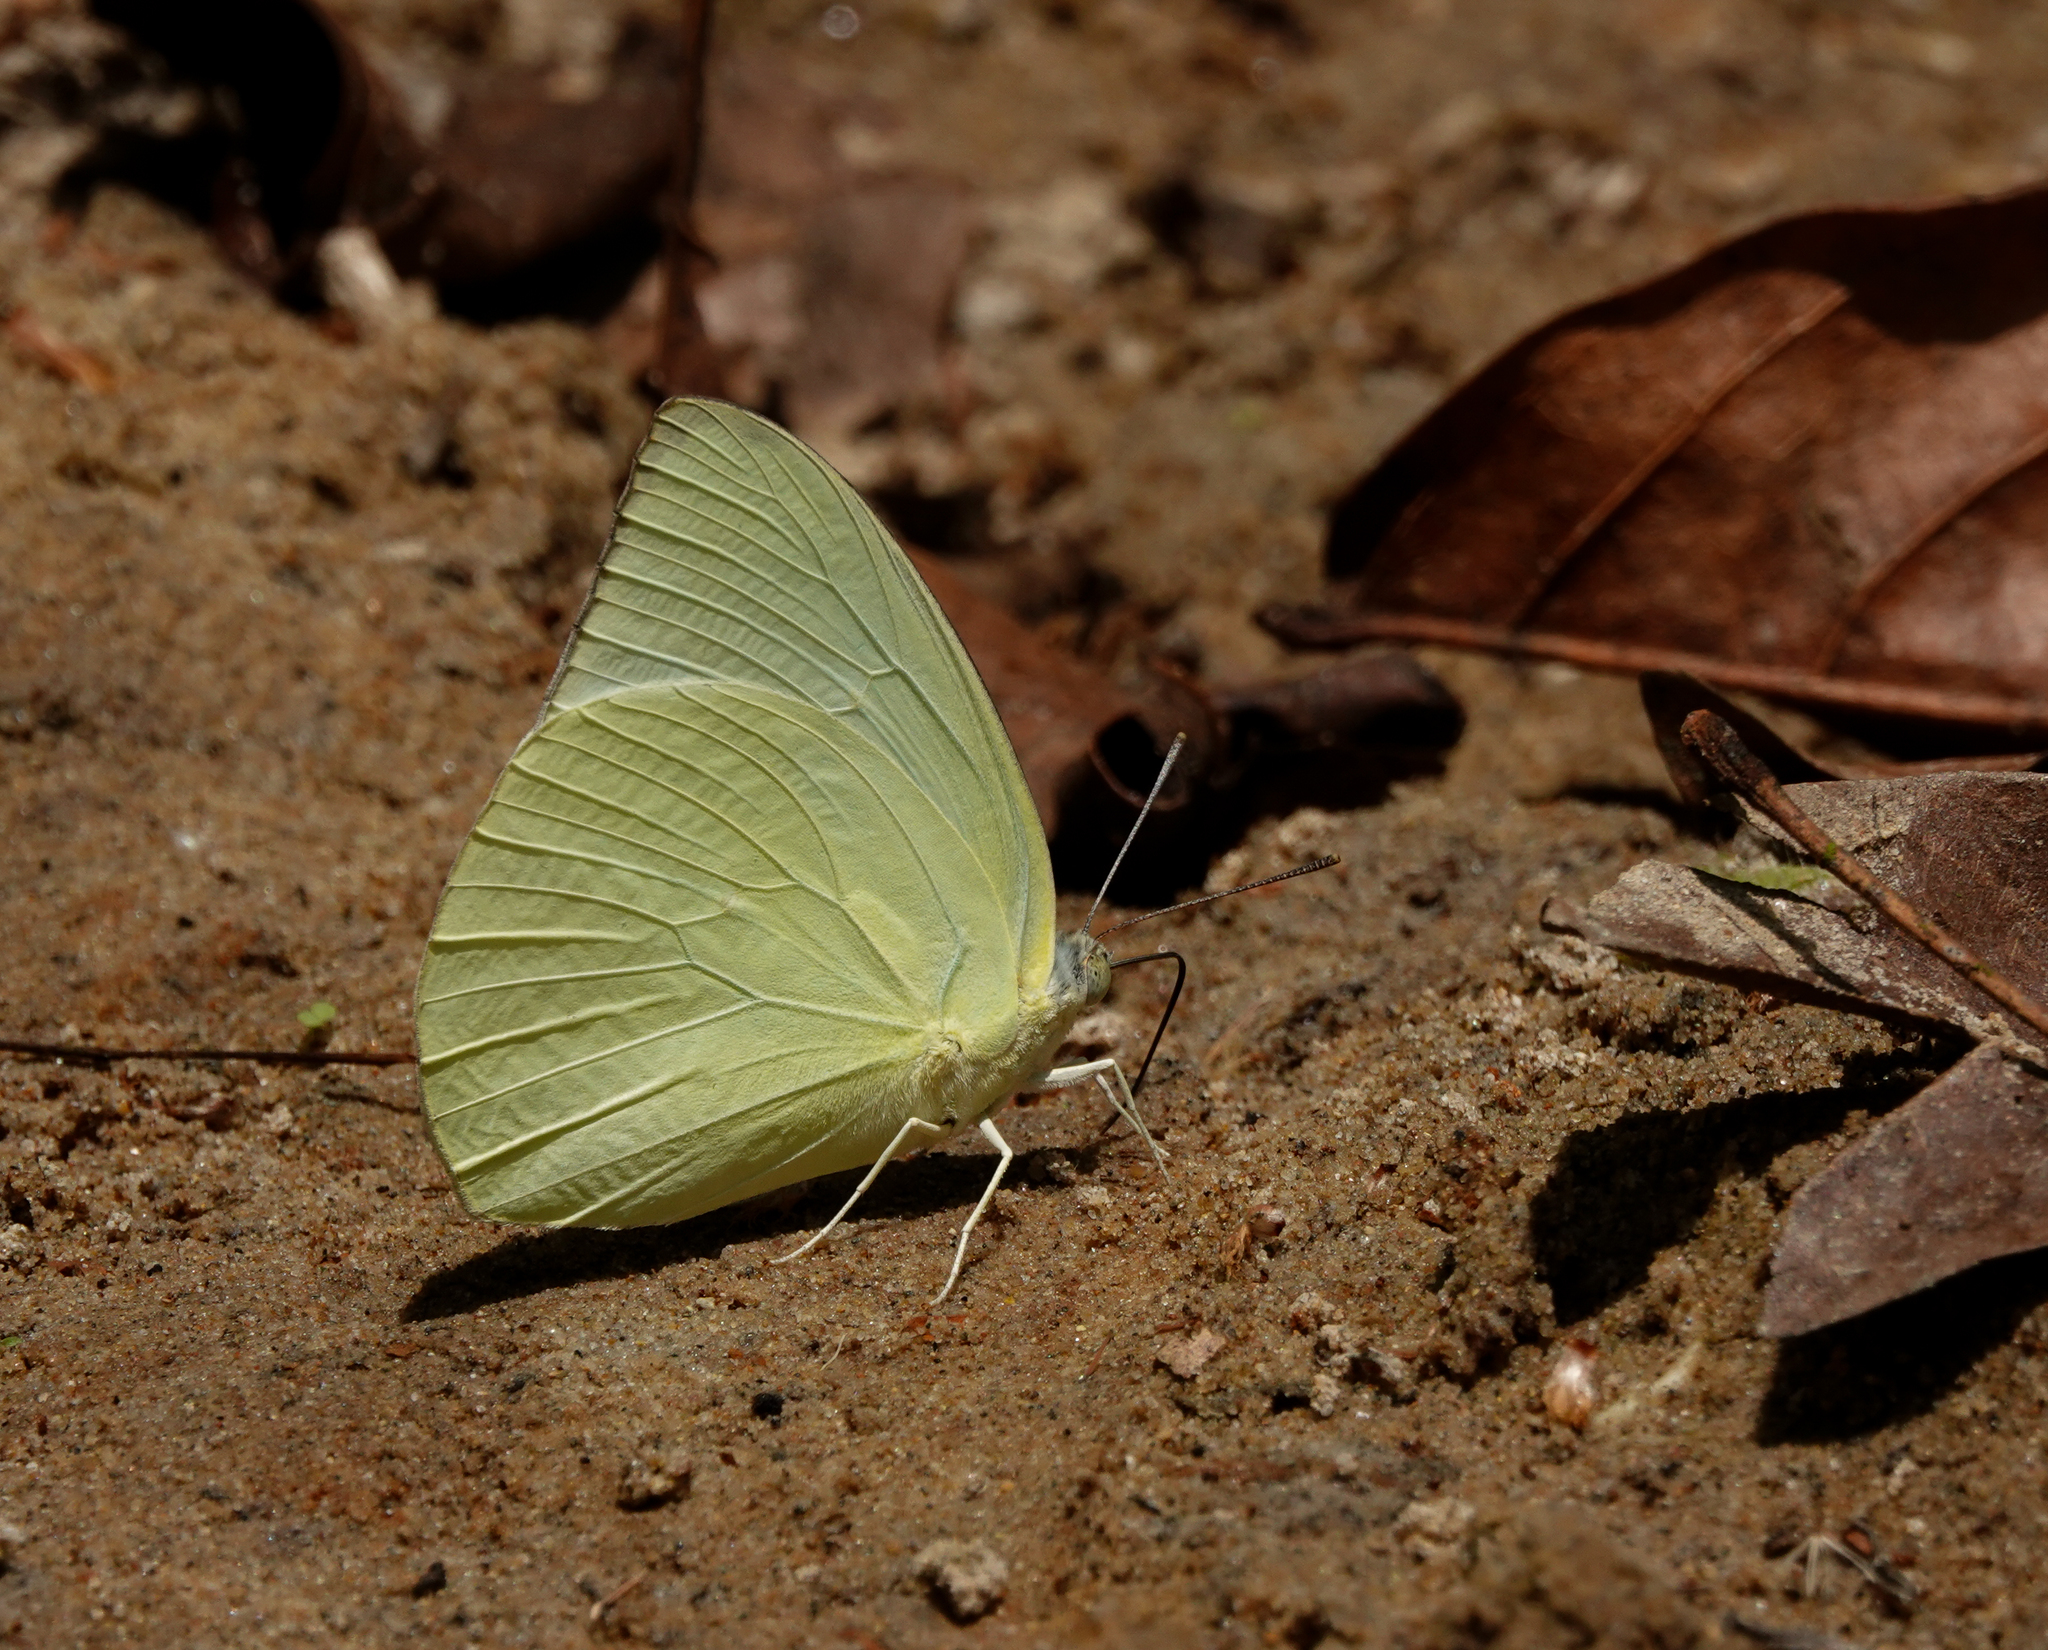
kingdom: Animalia
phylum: Arthropoda
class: Insecta
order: Lepidoptera
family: Pieridae
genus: Catopsilia
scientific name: Catopsilia pomona
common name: Common emigrant
